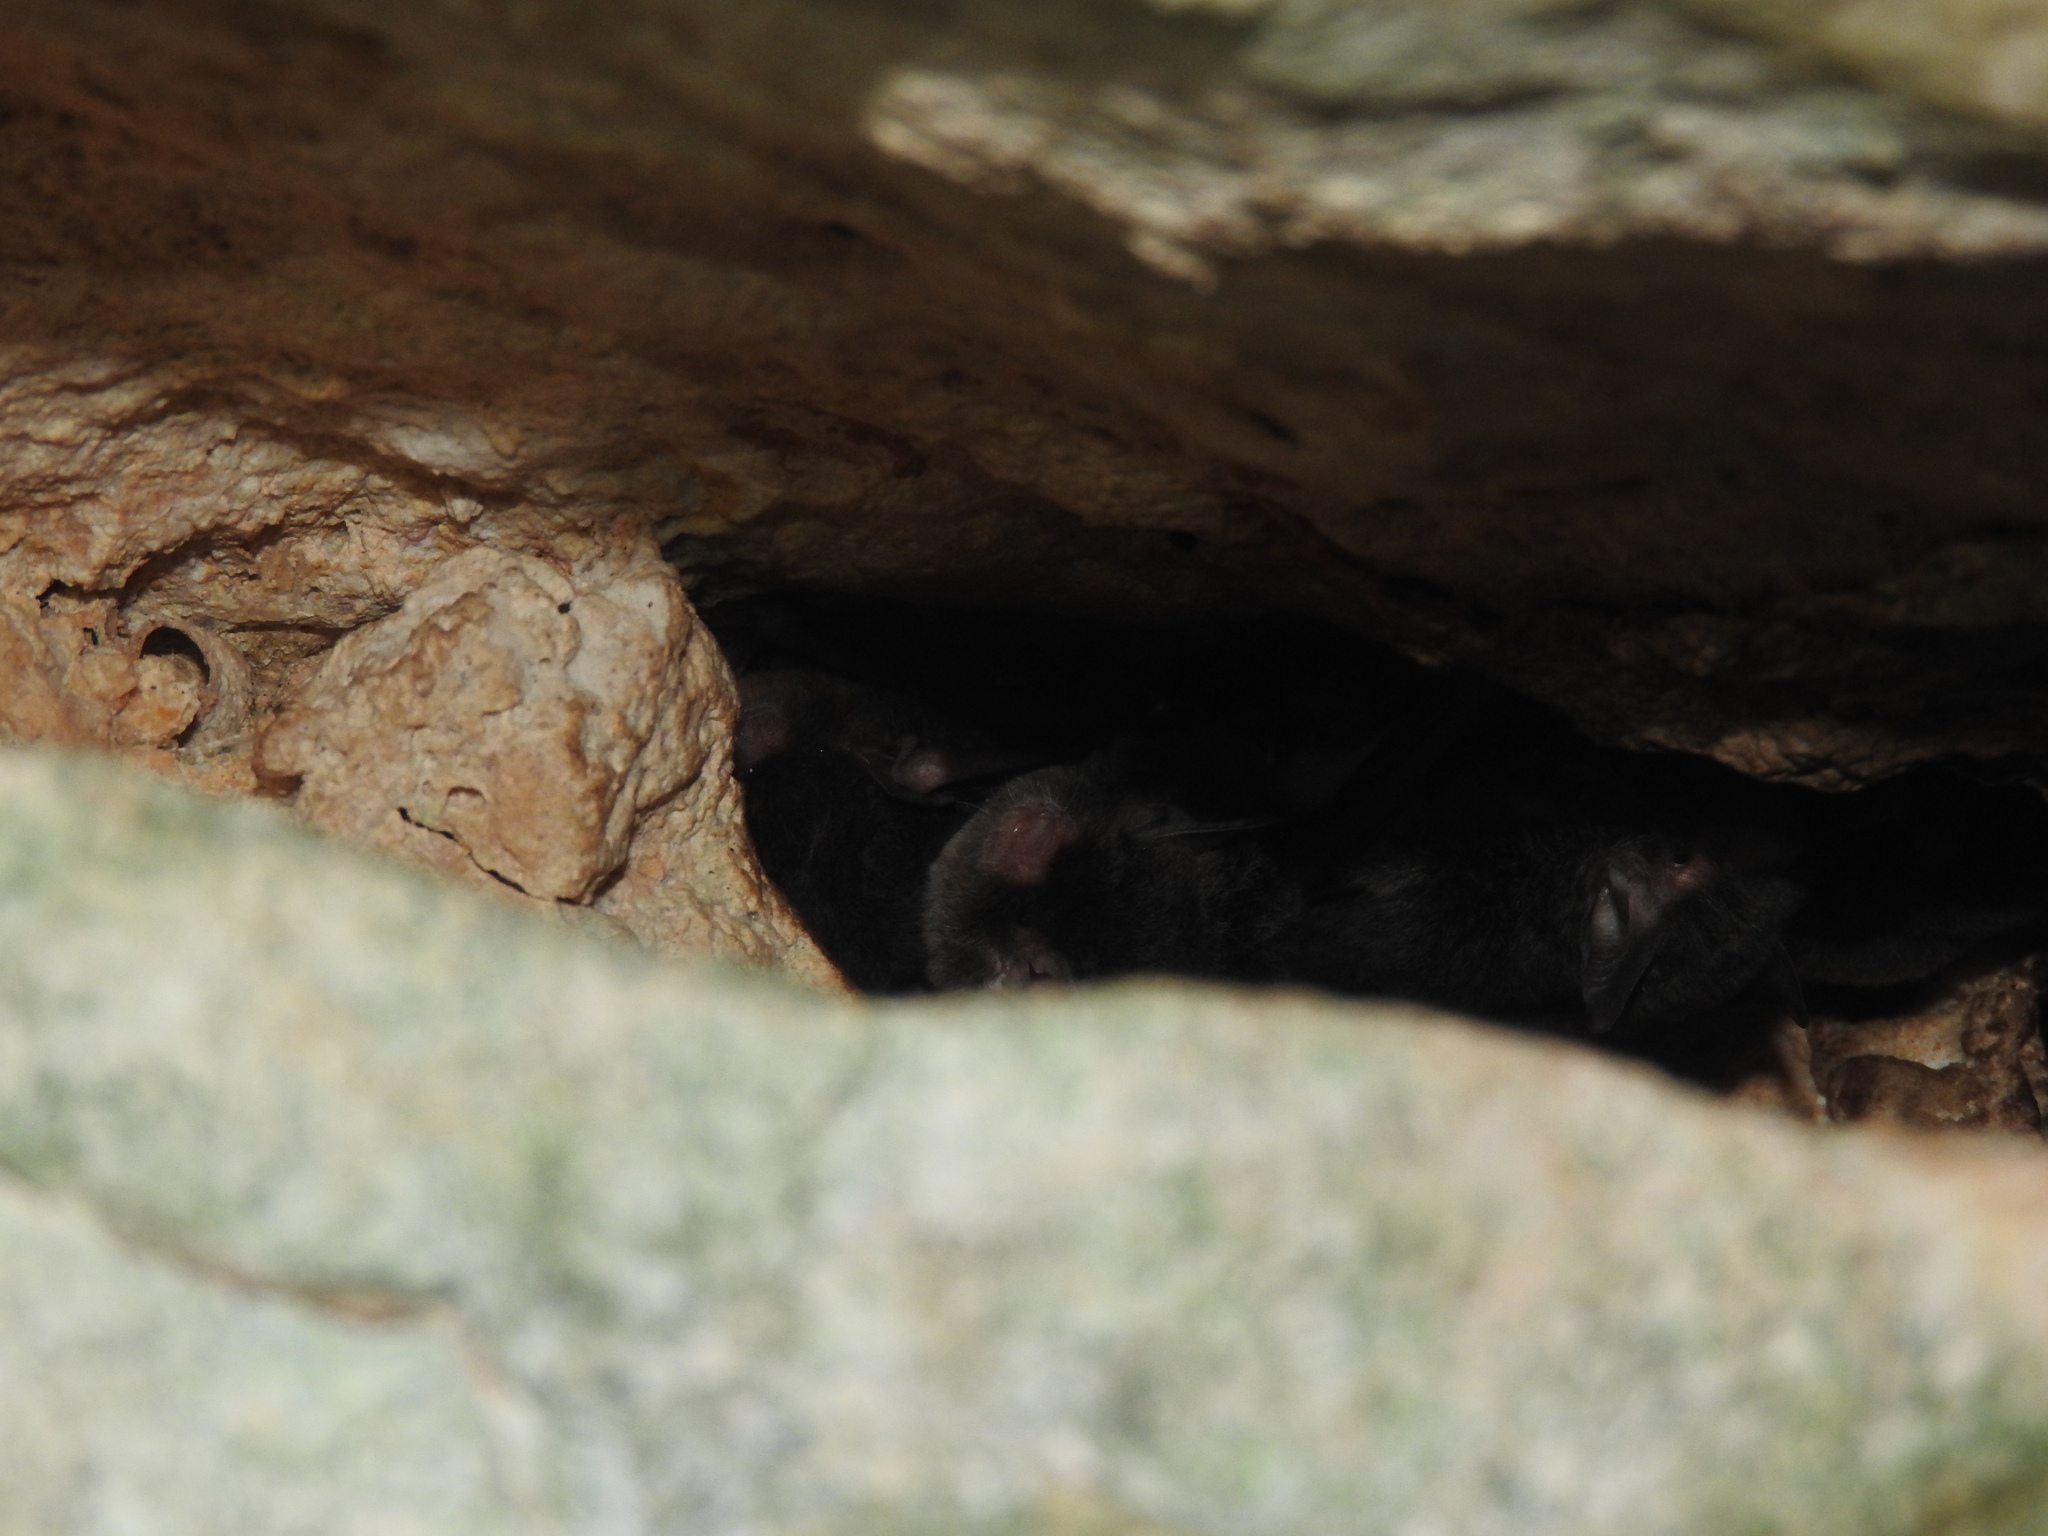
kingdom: Animalia
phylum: Chordata
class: Mammalia
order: Chiroptera
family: Vespertilionidae
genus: Myotis
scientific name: Myotis pilosatibialis
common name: Northern hairy-legged myotis
